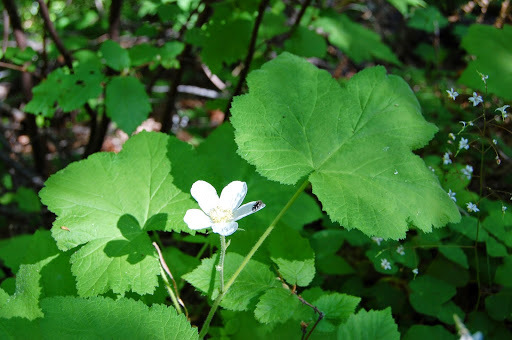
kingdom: Plantae
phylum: Tracheophyta
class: Magnoliopsida
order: Rosales
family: Rosaceae
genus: Rubus
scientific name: Rubus parviflorus
